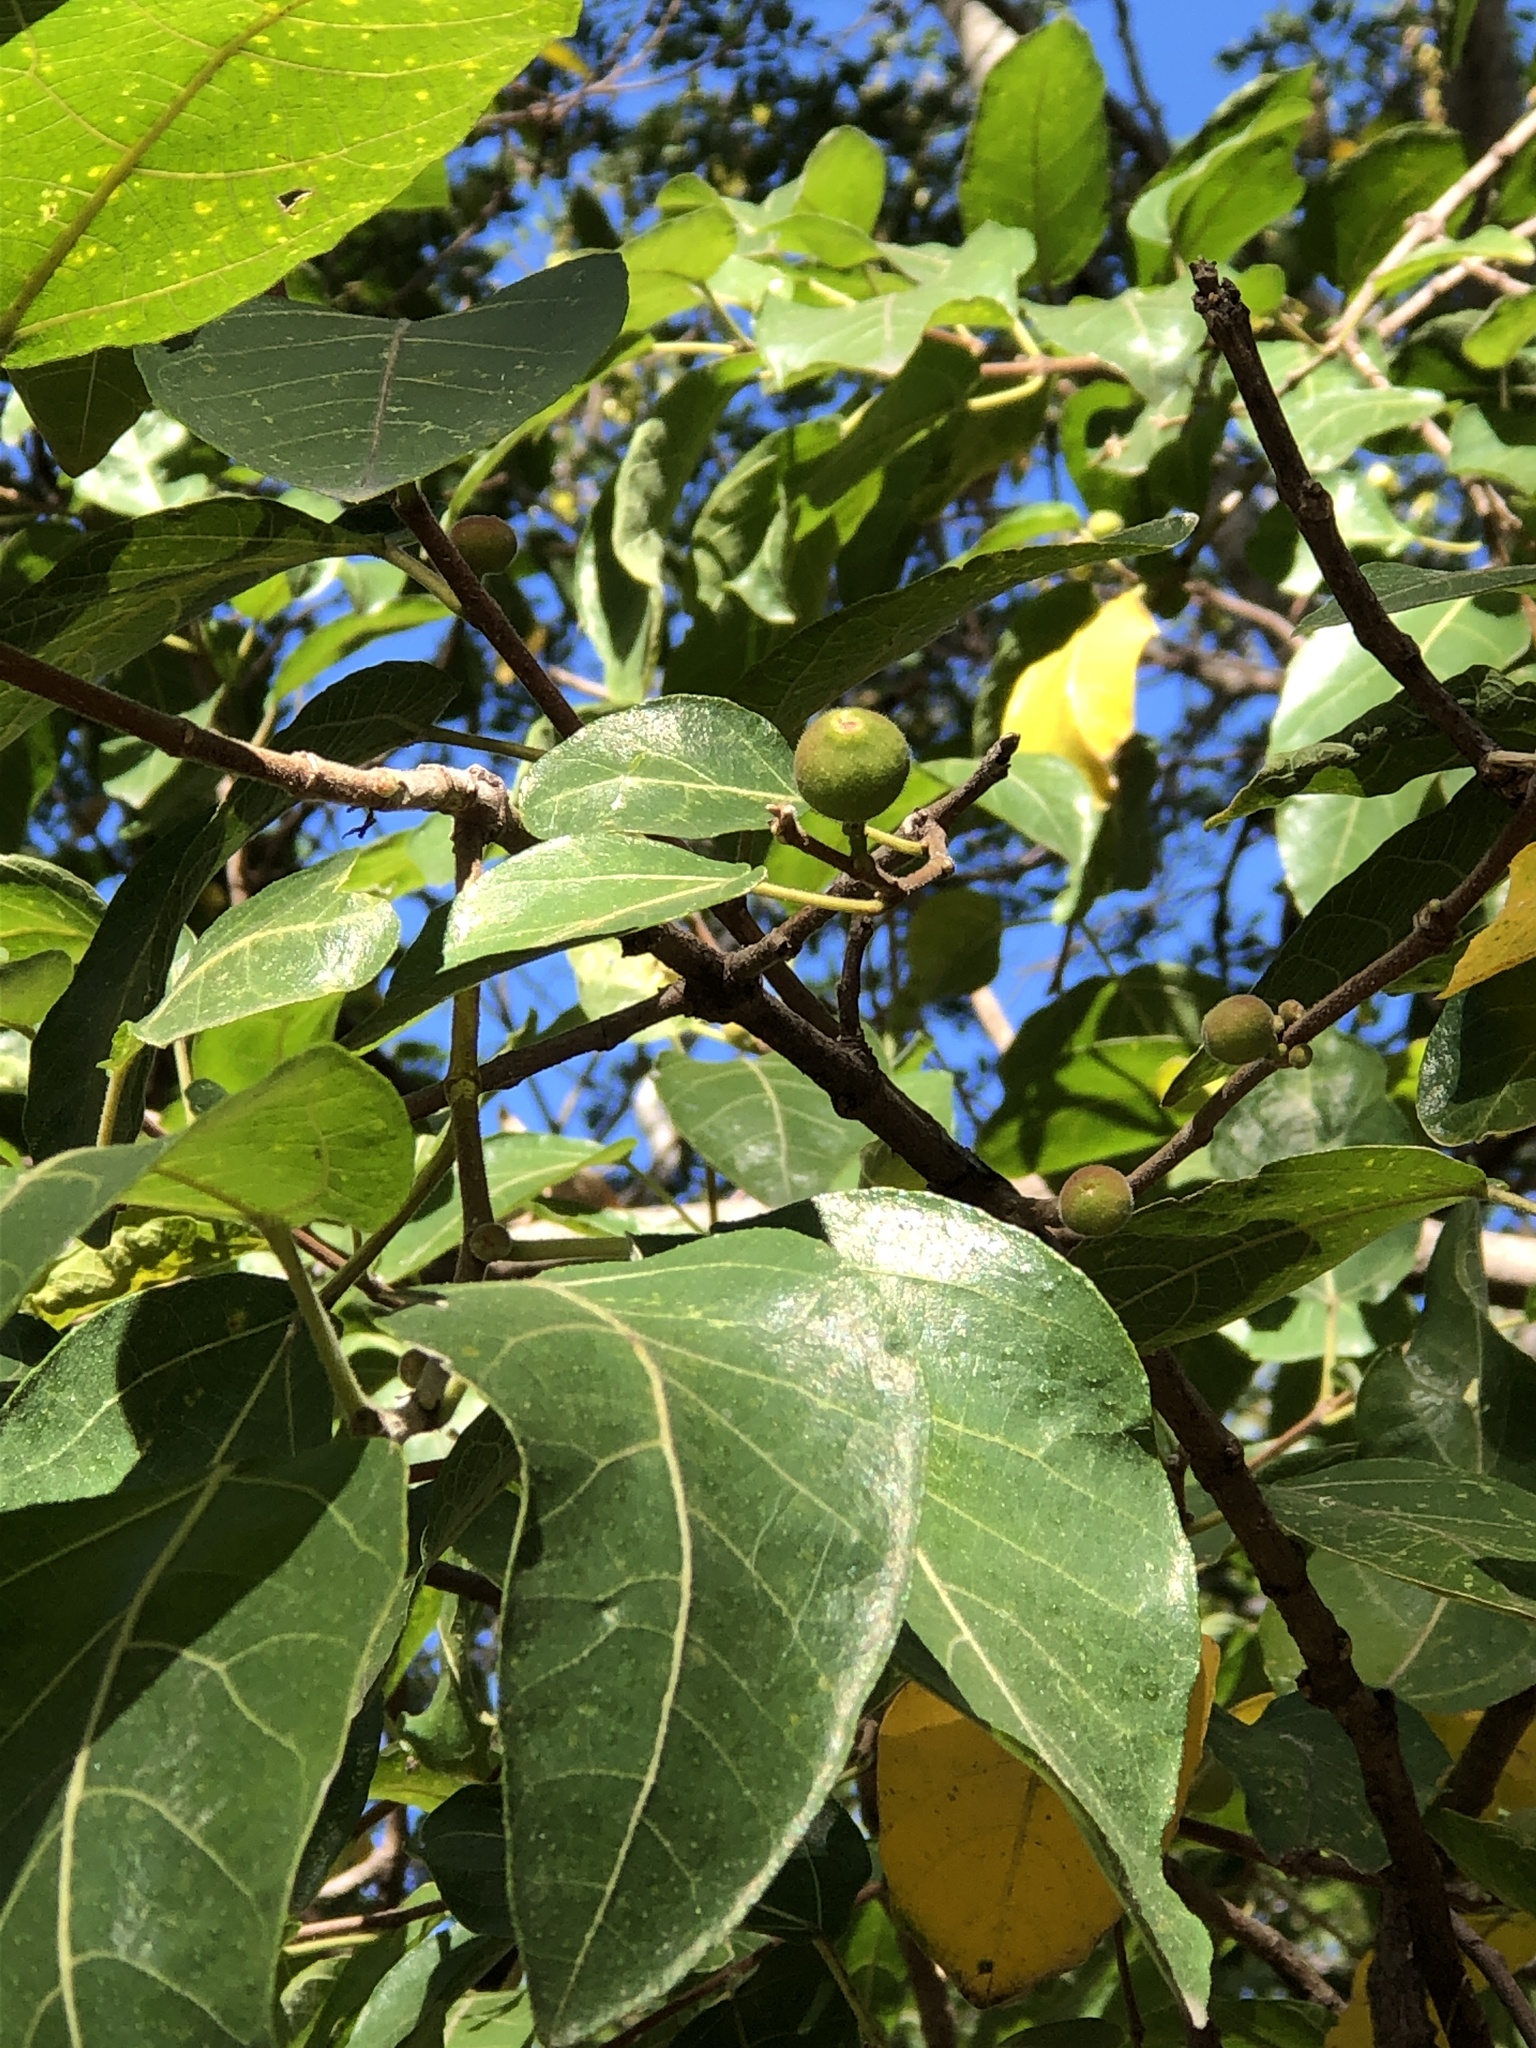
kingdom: Plantae
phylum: Tracheophyta
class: Magnoliopsida
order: Rosales
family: Moraceae
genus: Ficus
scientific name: Ficus opposita
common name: Figwood
